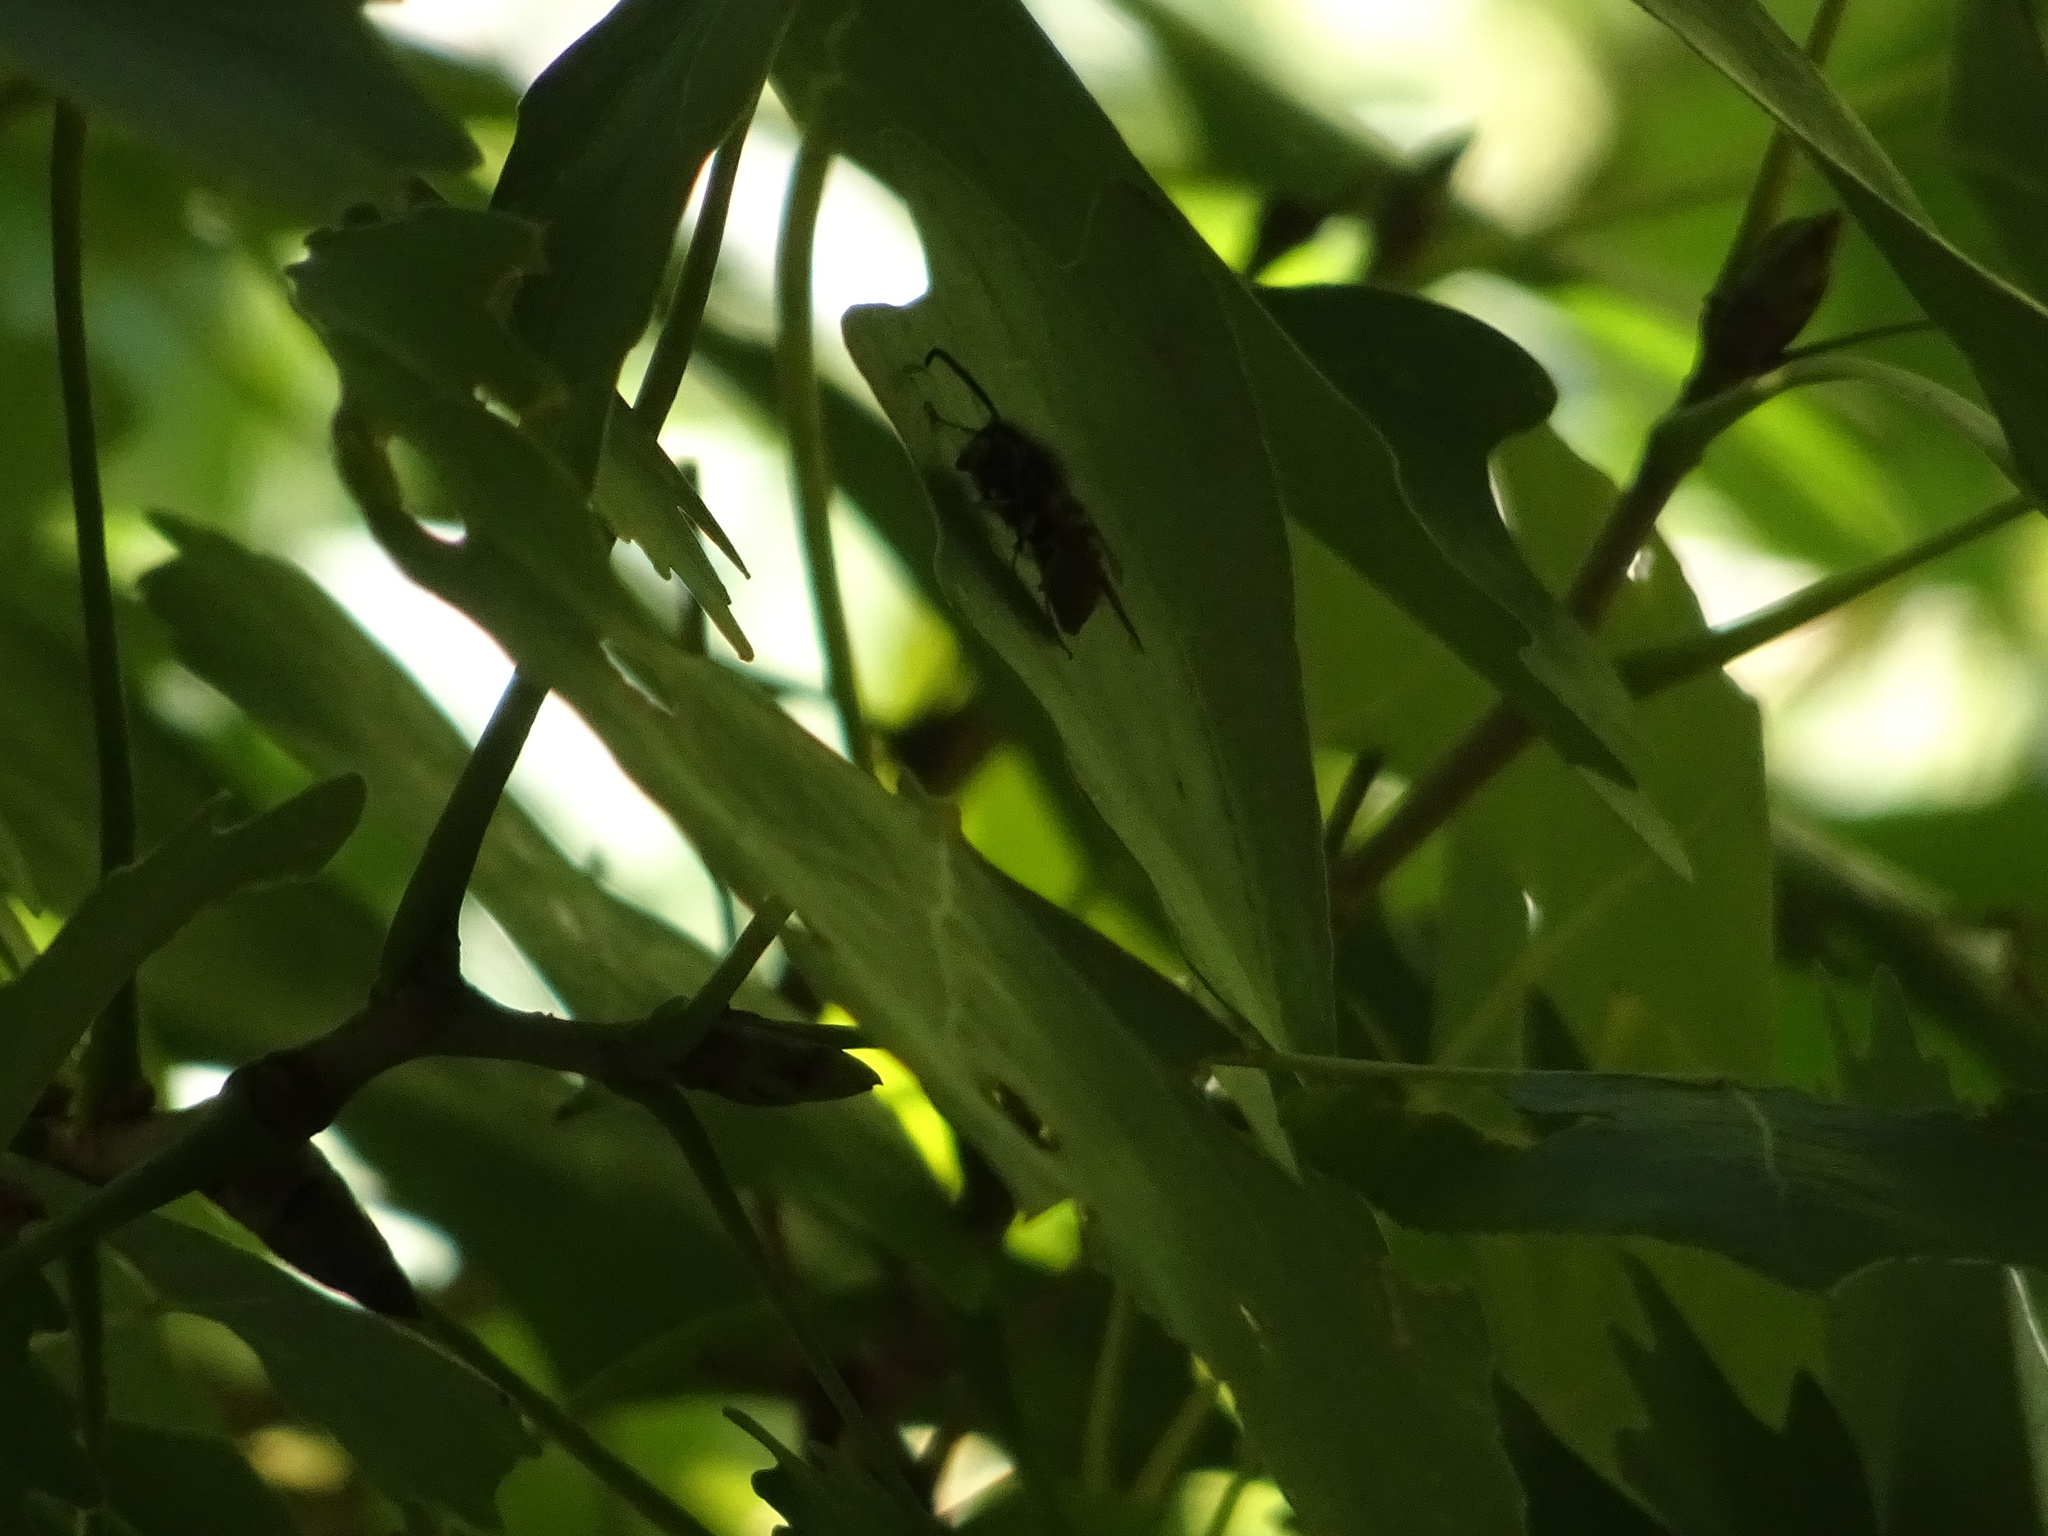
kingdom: Animalia
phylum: Arthropoda
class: Insecta
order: Hymenoptera
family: Vespidae
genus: Vespula
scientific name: Vespula
